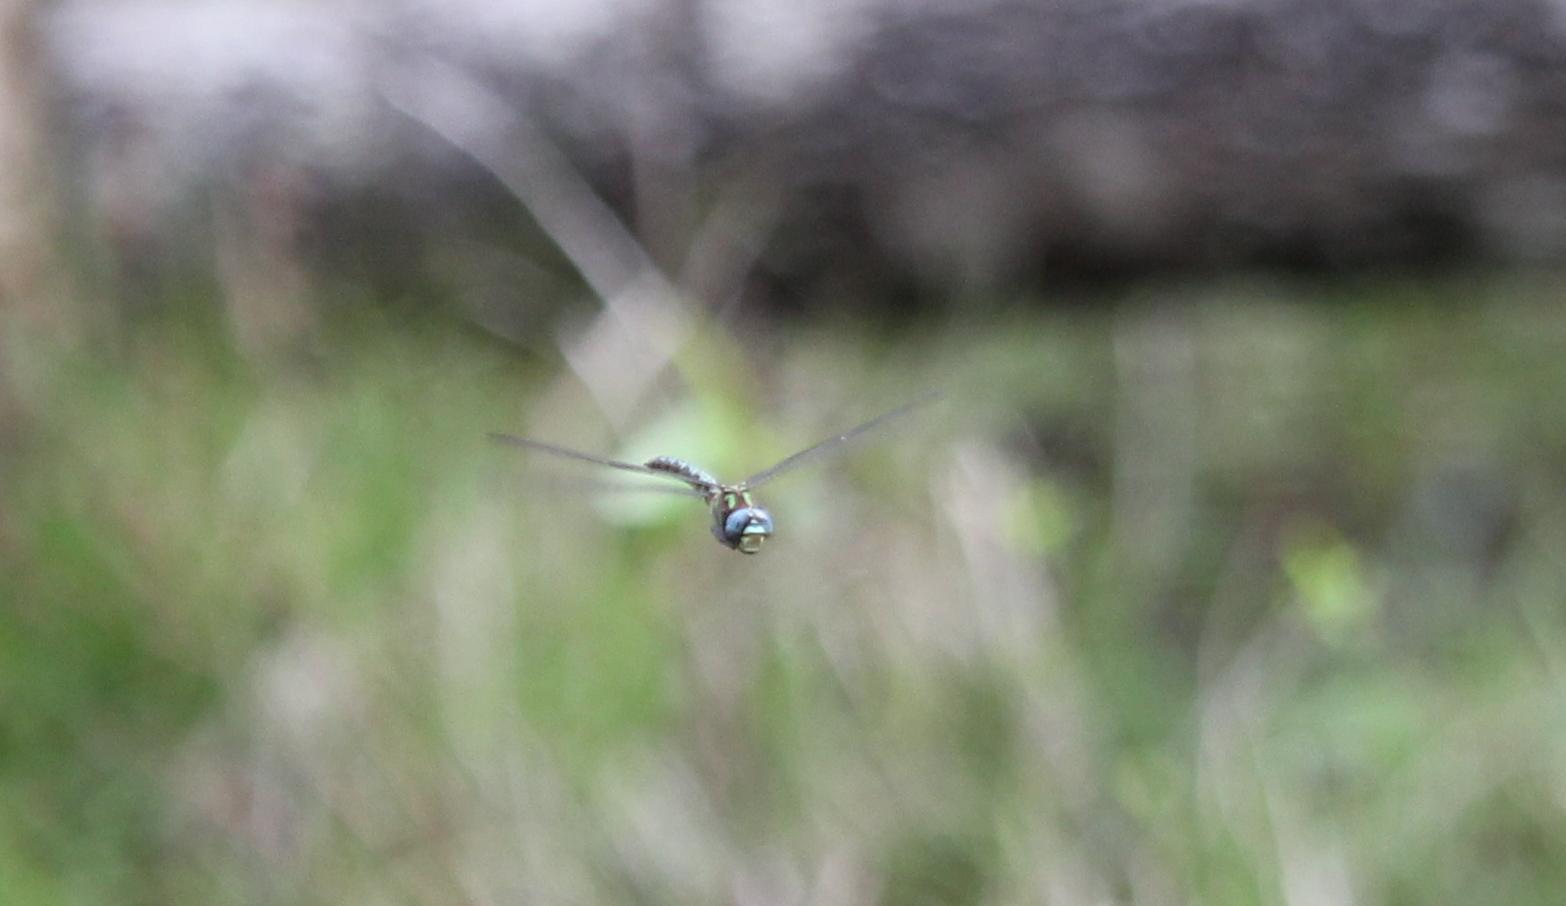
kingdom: Animalia
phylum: Arthropoda
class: Insecta
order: Odonata
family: Aeshnidae
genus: Nasiaeschna
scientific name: Nasiaeschna pentacantha
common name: Cyrano darner
